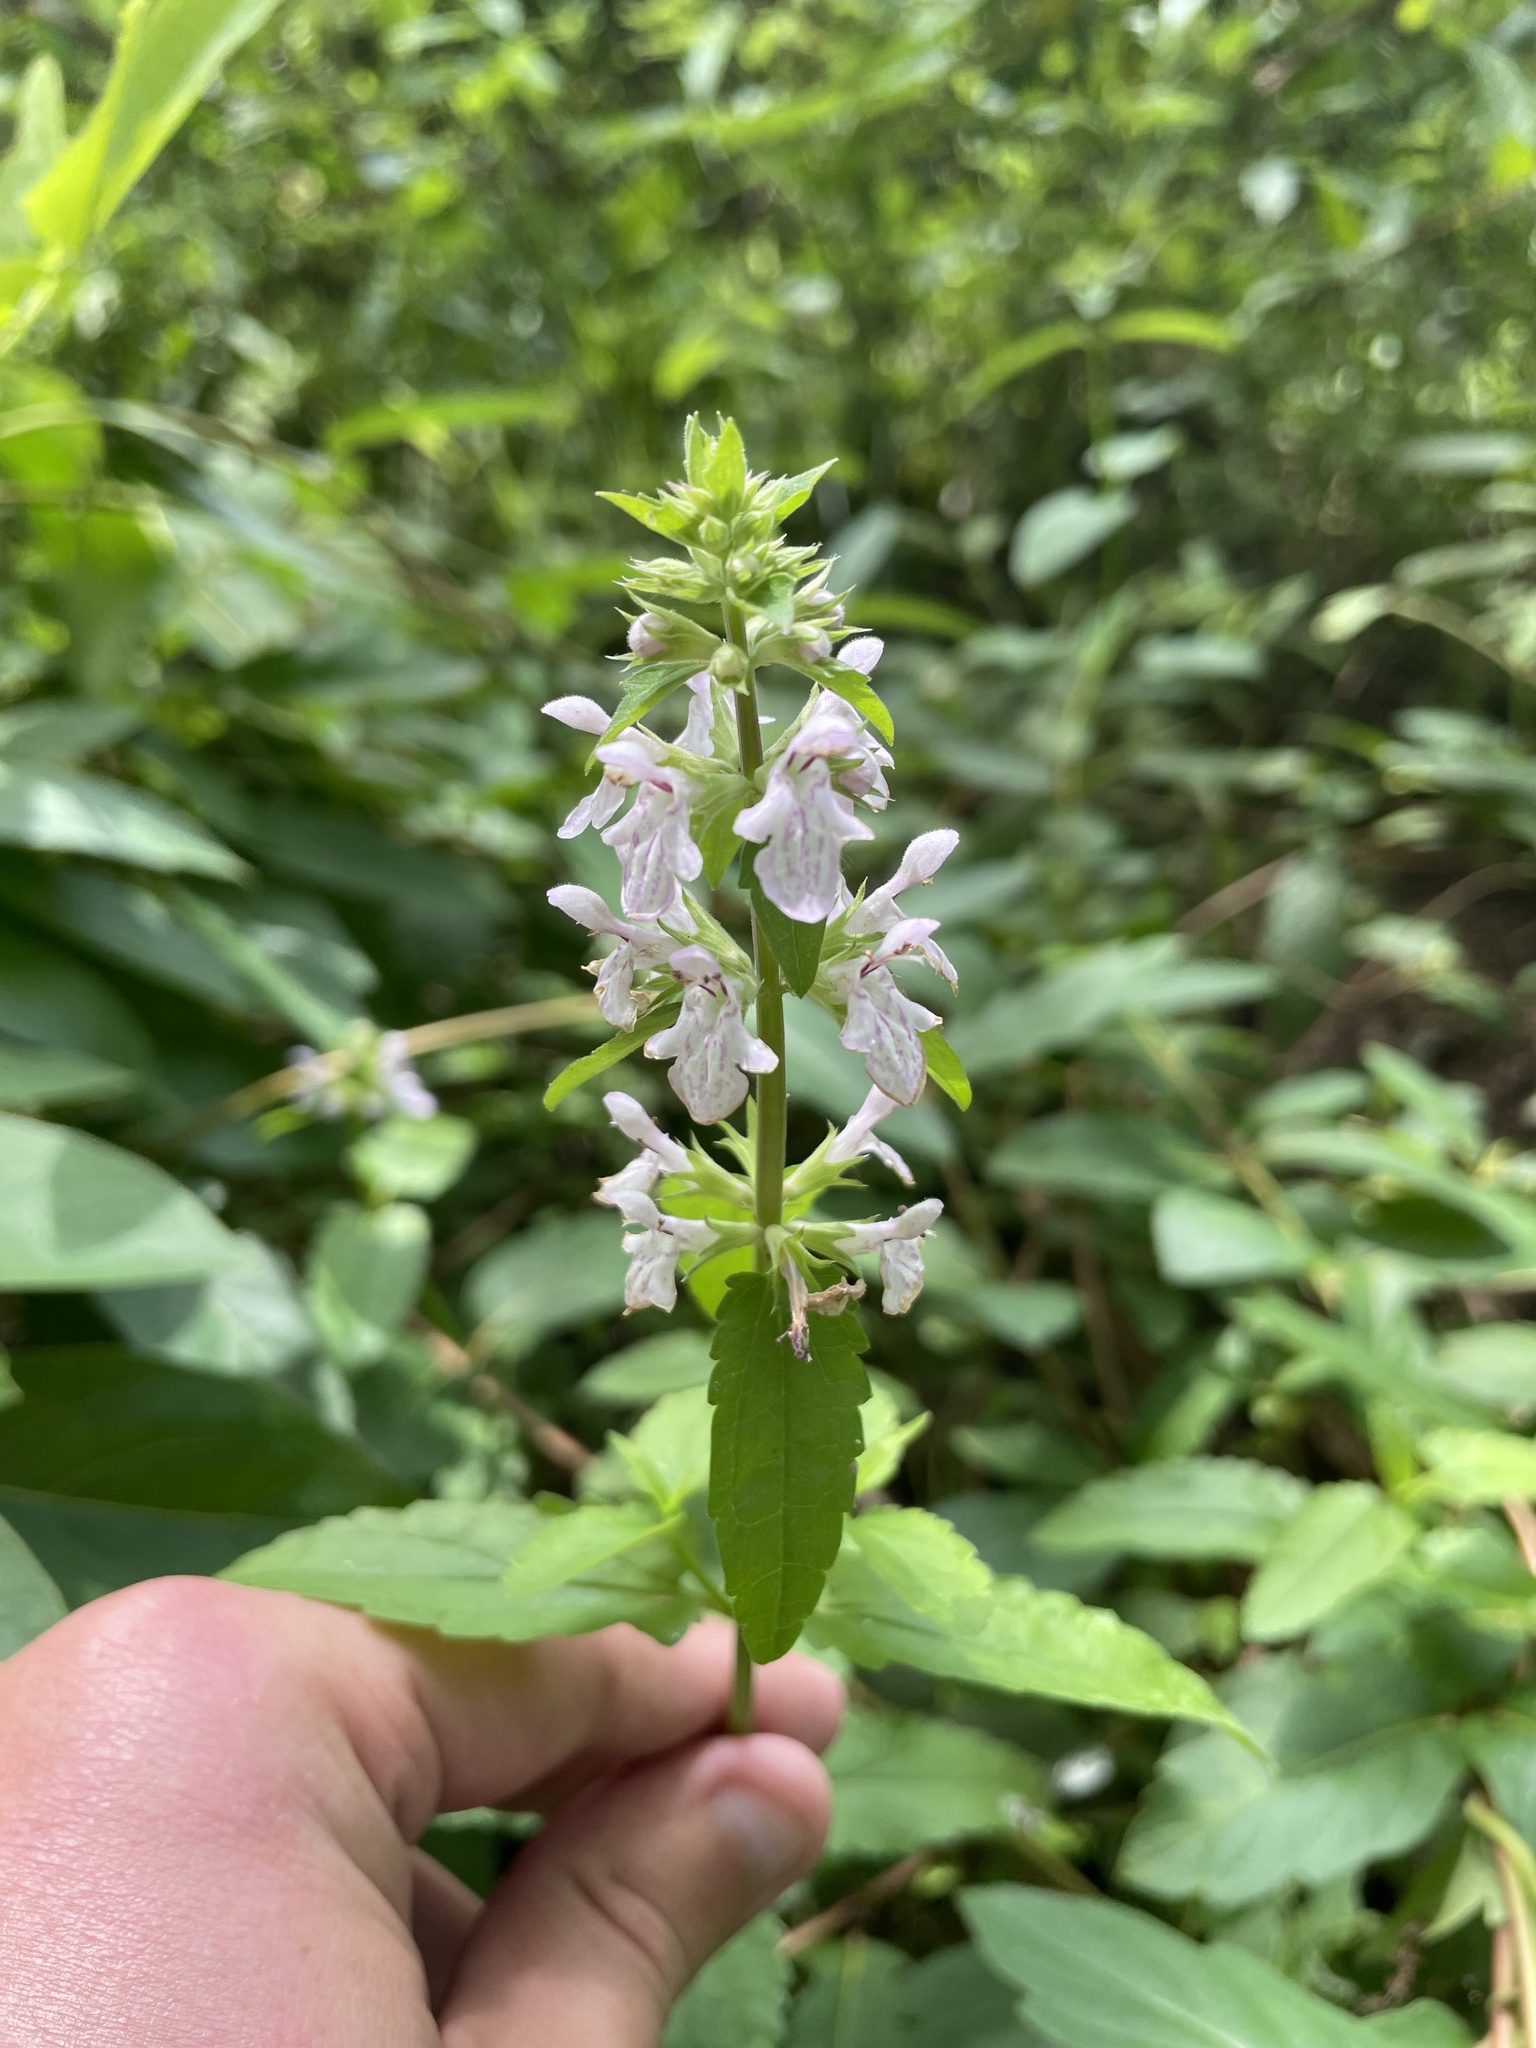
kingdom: Plantae
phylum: Tracheophyta
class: Magnoliopsida
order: Lamiales
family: Lamiaceae
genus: Stachys
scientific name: Stachys floridana
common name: Florida betony
